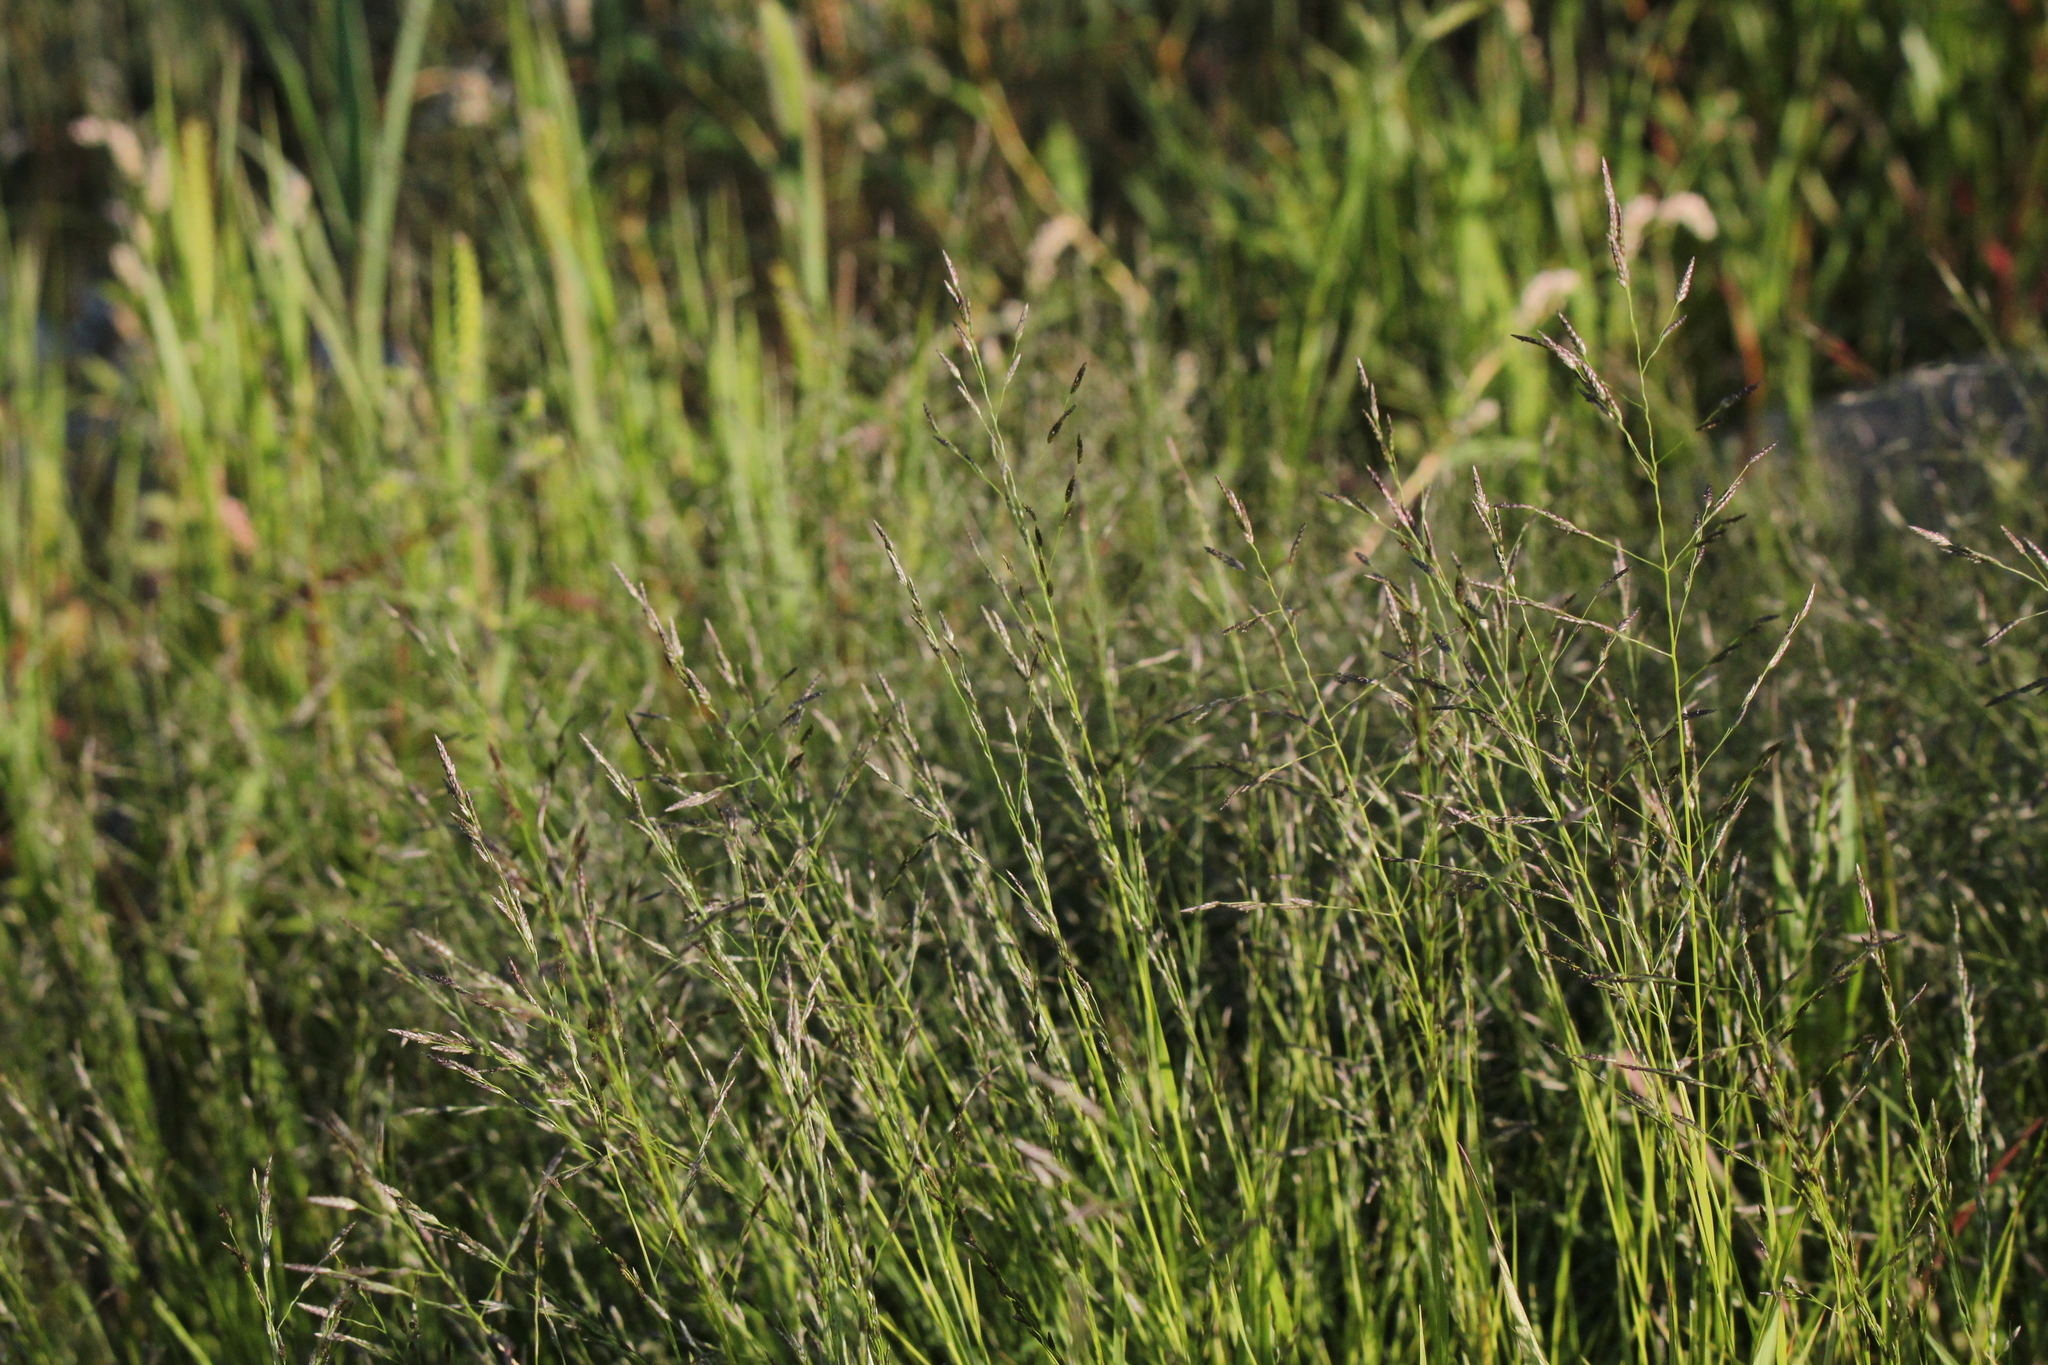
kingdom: Plantae
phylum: Tracheophyta
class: Liliopsida
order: Poales
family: Poaceae
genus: Eragrostis
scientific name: Eragrostis pectinacea
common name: Tufted lovegrass
